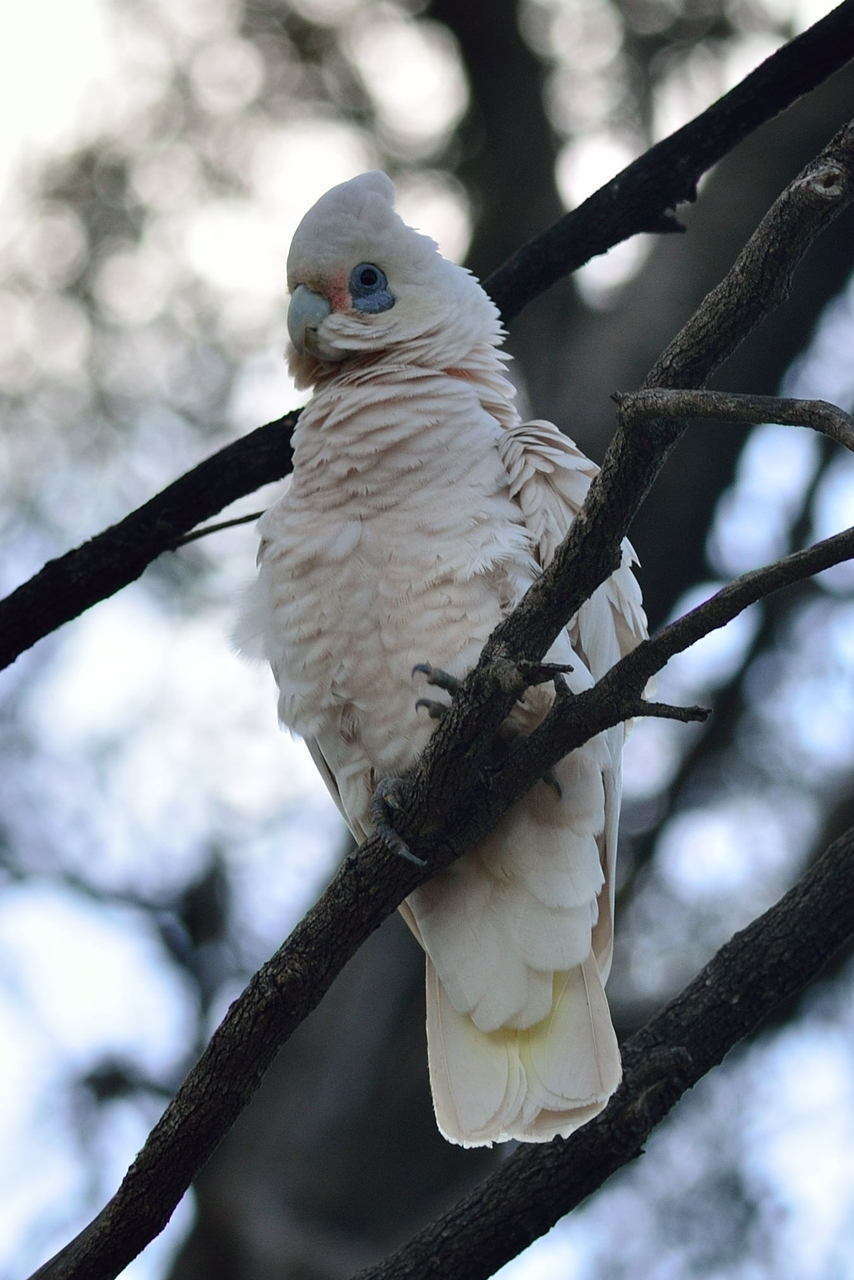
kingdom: Animalia
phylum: Chordata
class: Aves
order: Psittaciformes
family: Psittacidae
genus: Cacatua
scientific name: Cacatua sanguinea
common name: Little corella
